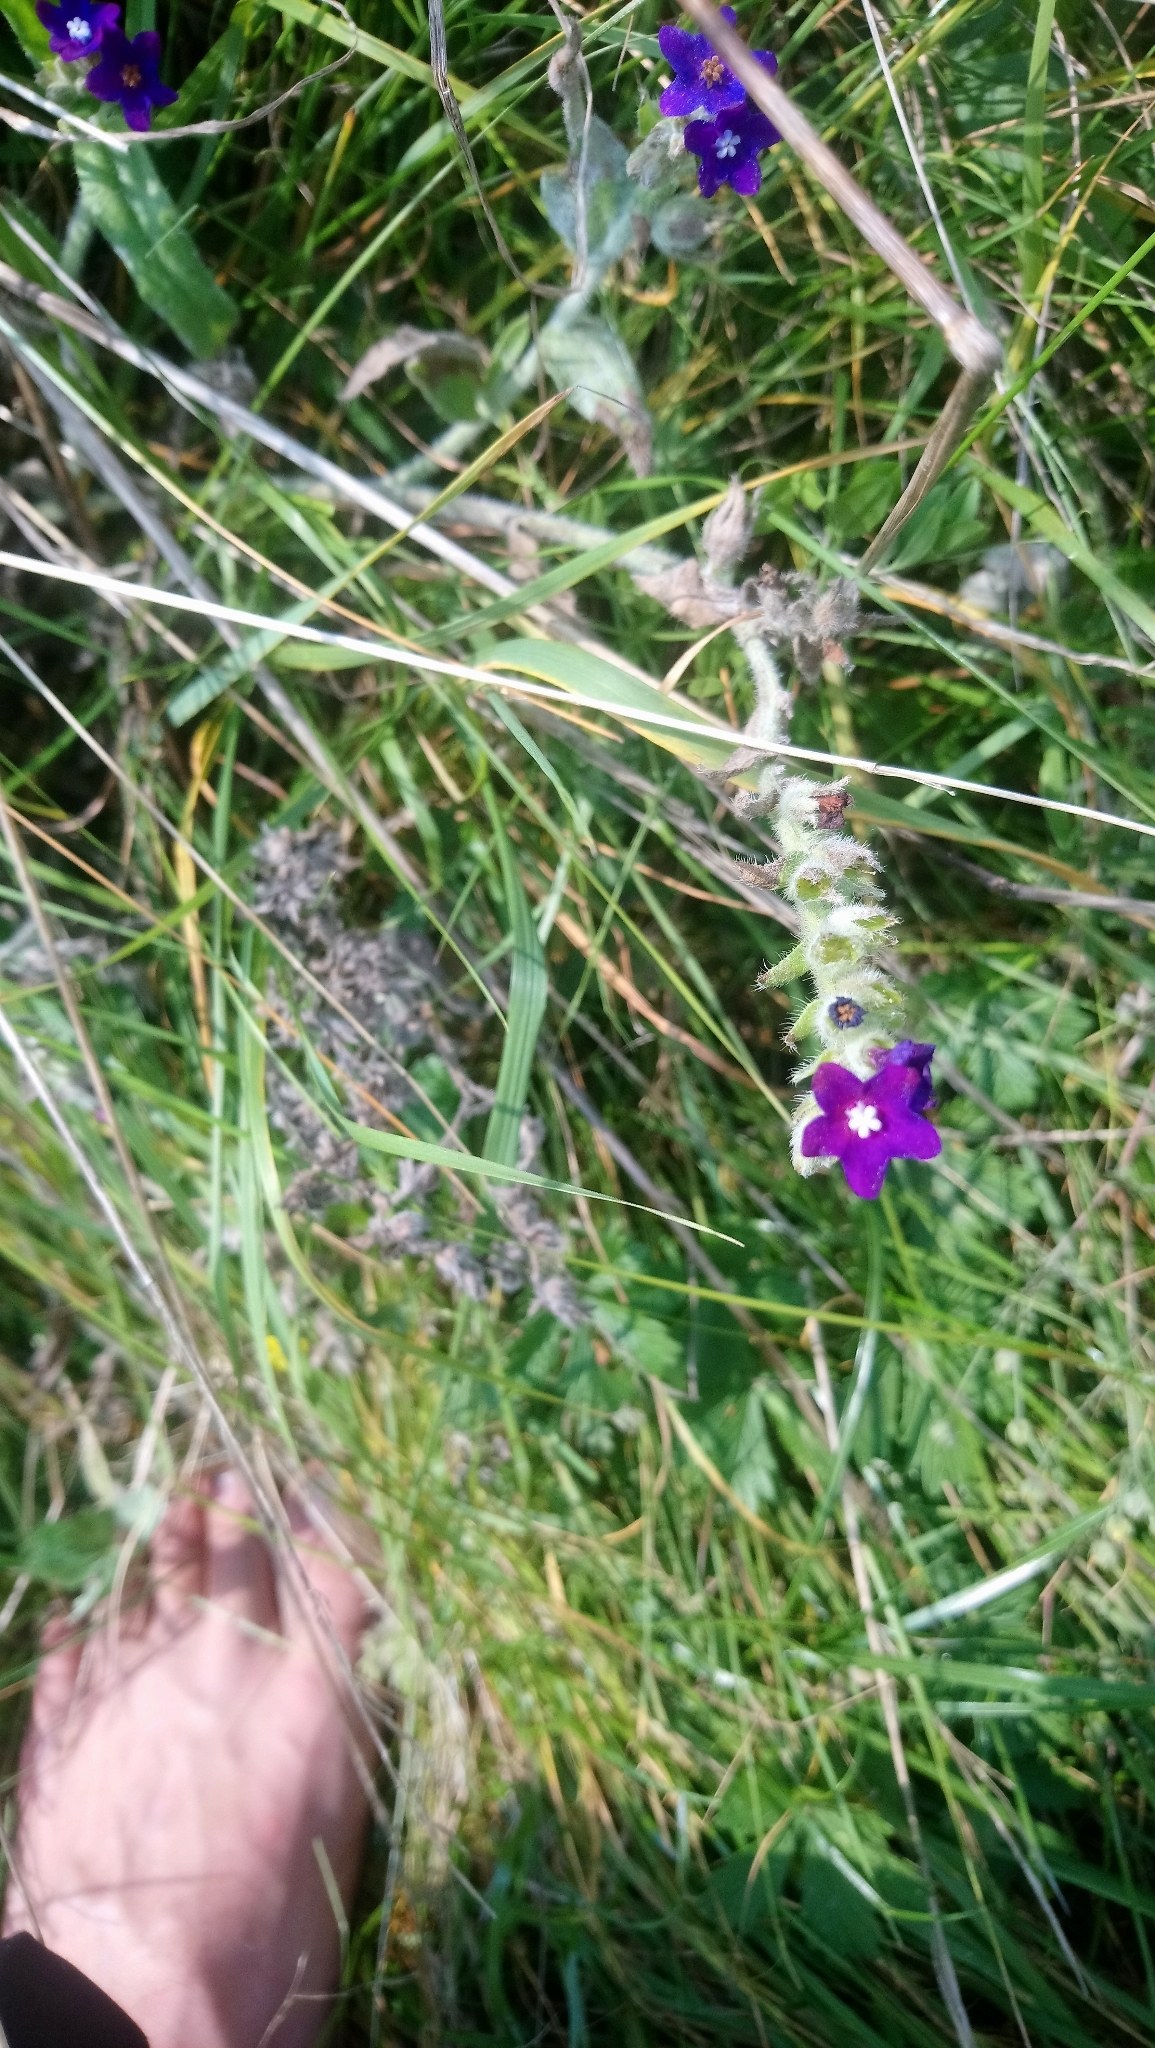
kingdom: Plantae
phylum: Tracheophyta
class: Magnoliopsida
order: Boraginales
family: Boraginaceae
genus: Anchusa
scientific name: Anchusa officinalis
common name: Alkanet
